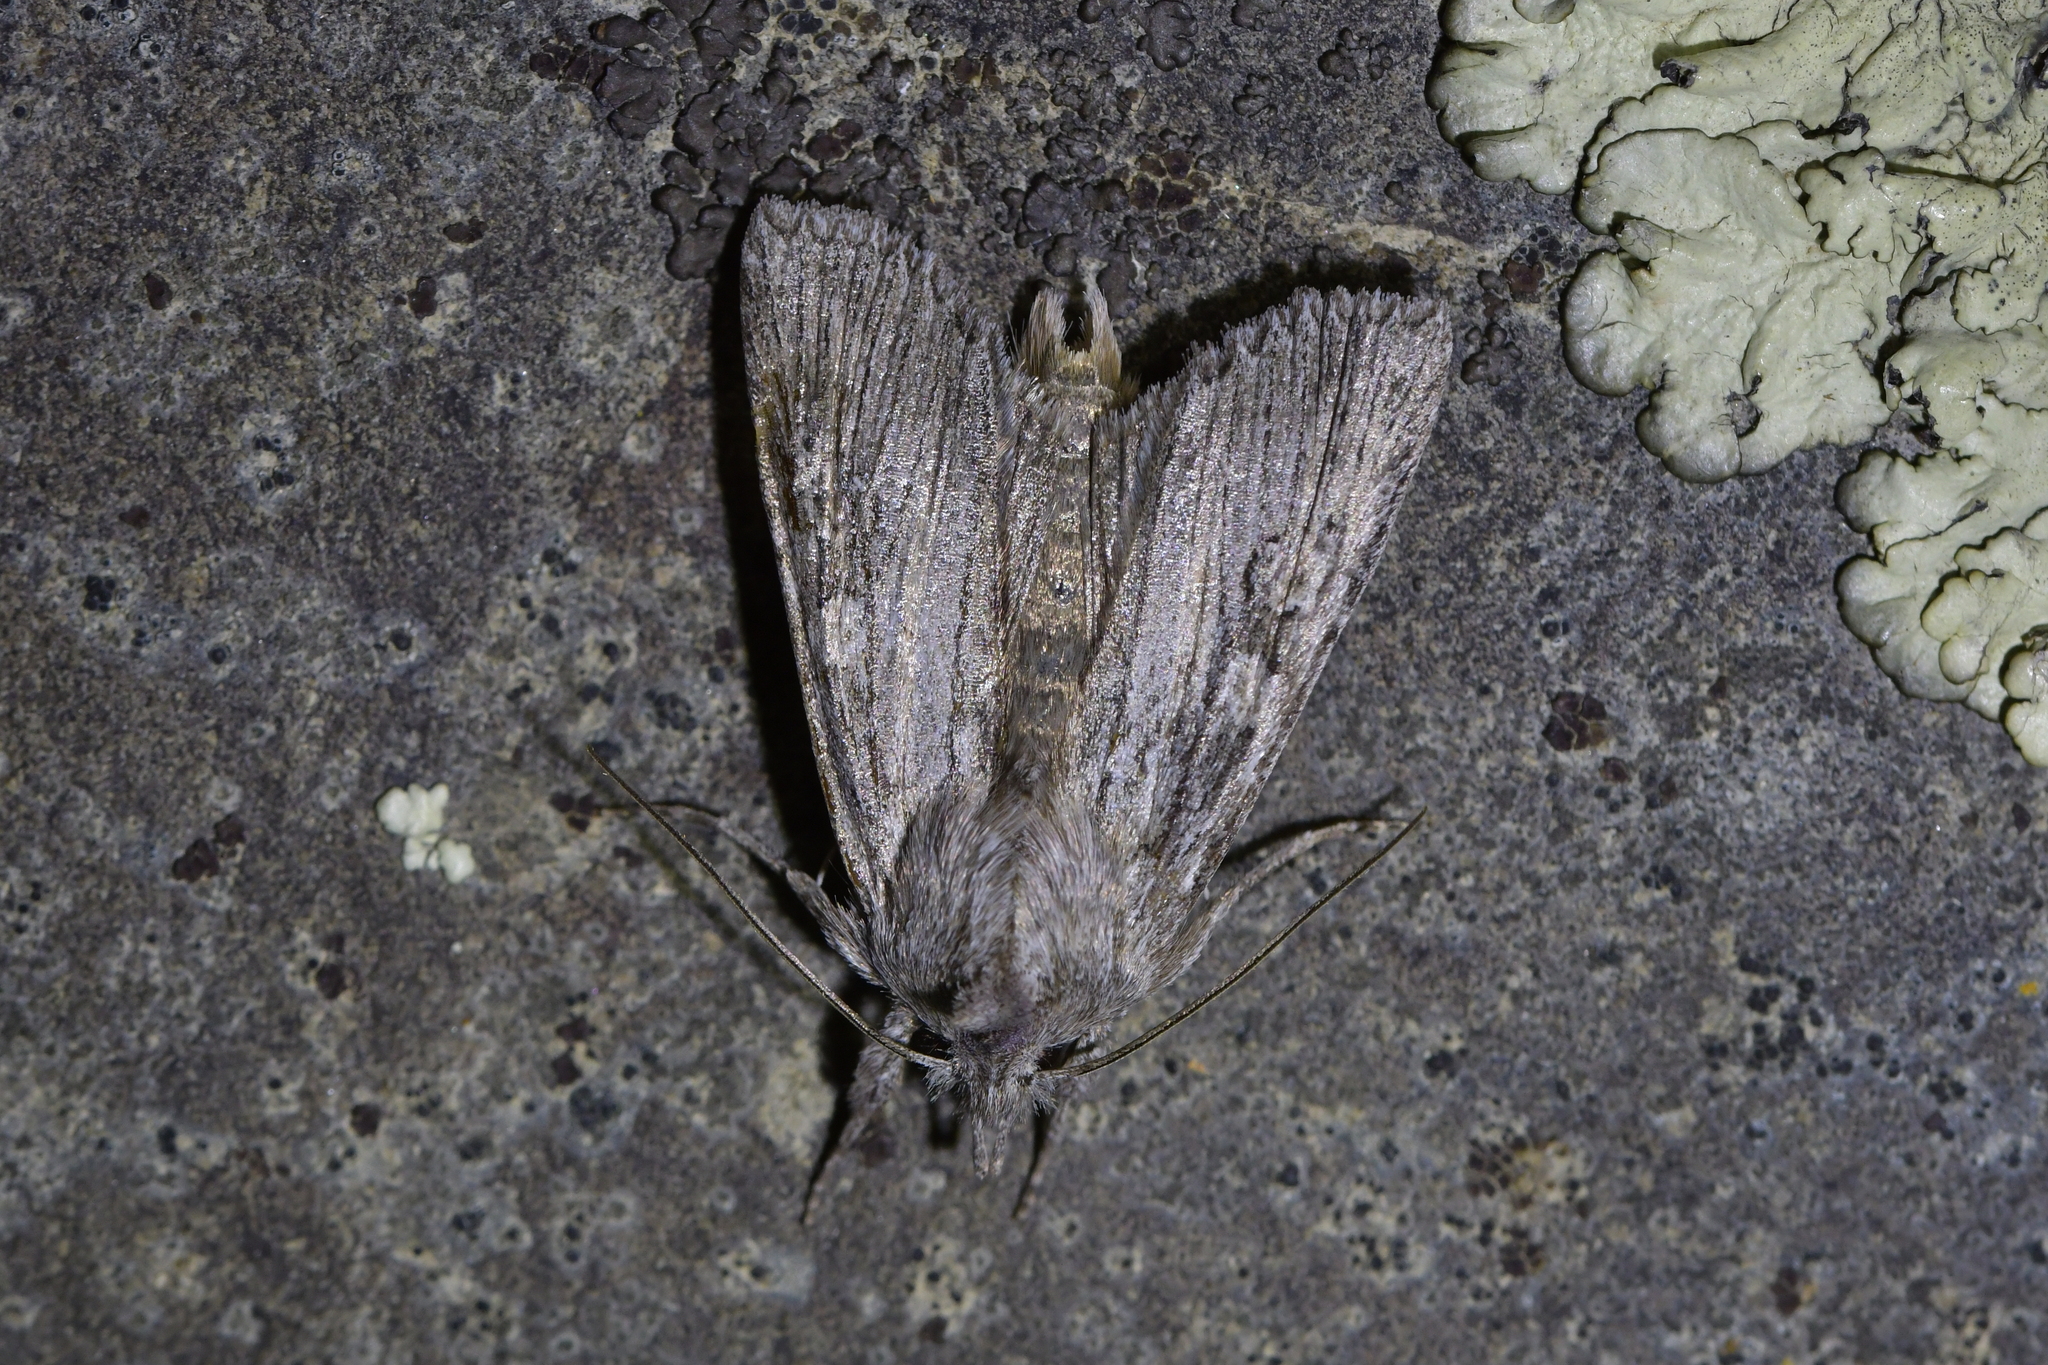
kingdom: Animalia
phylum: Arthropoda
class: Insecta
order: Lepidoptera
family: Noctuidae
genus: Physetica
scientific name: Physetica phricias
